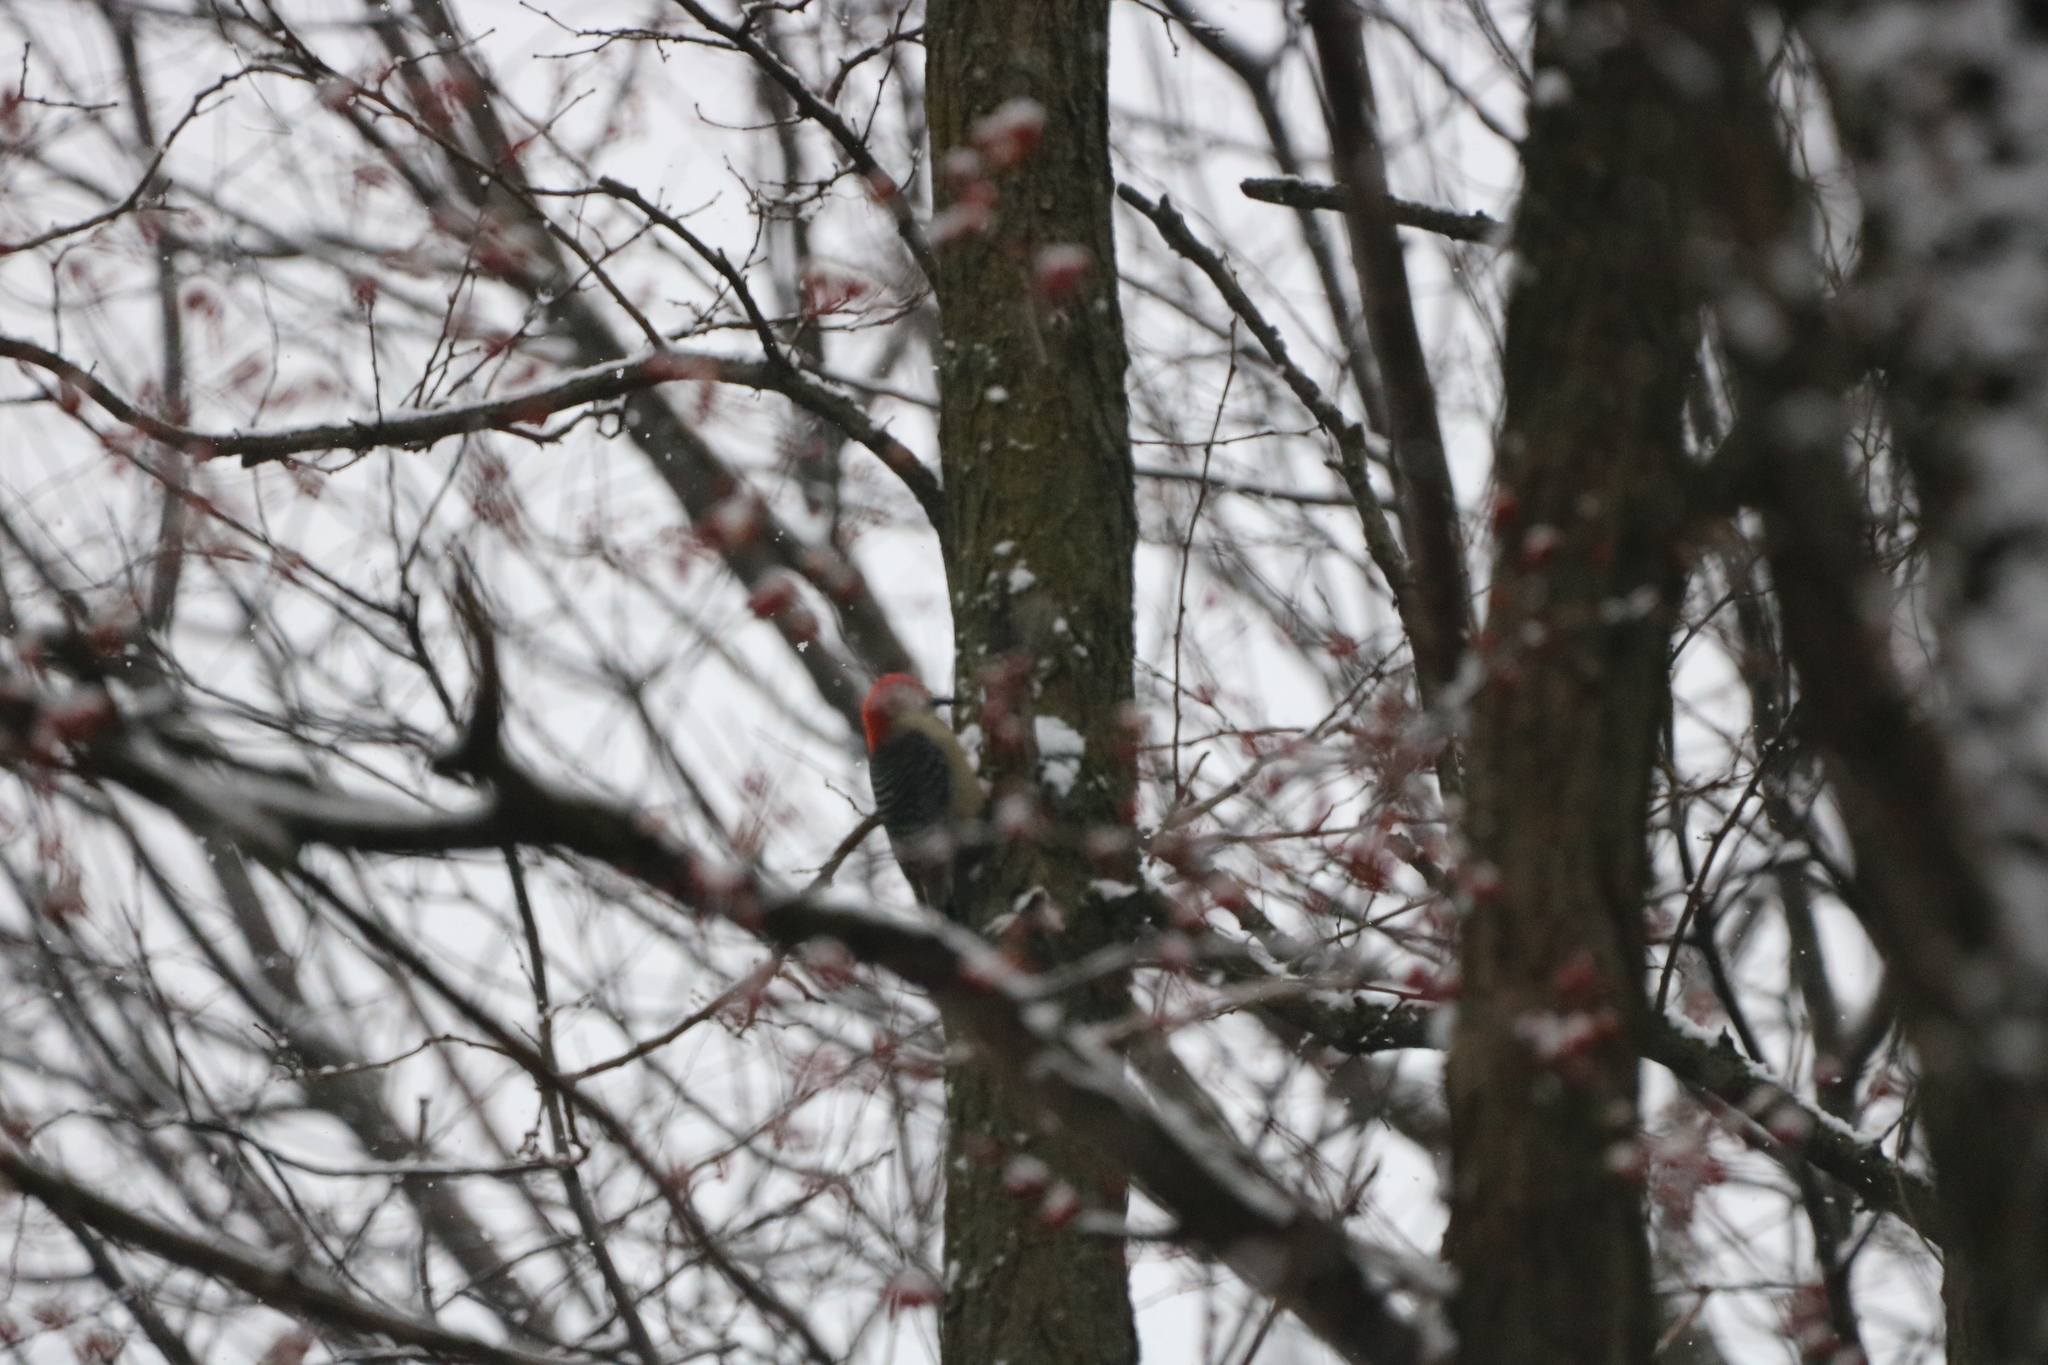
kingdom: Animalia
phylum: Chordata
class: Aves
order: Piciformes
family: Picidae
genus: Melanerpes
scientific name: Melanerpes carolinus
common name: Red-bellied woodpecker
